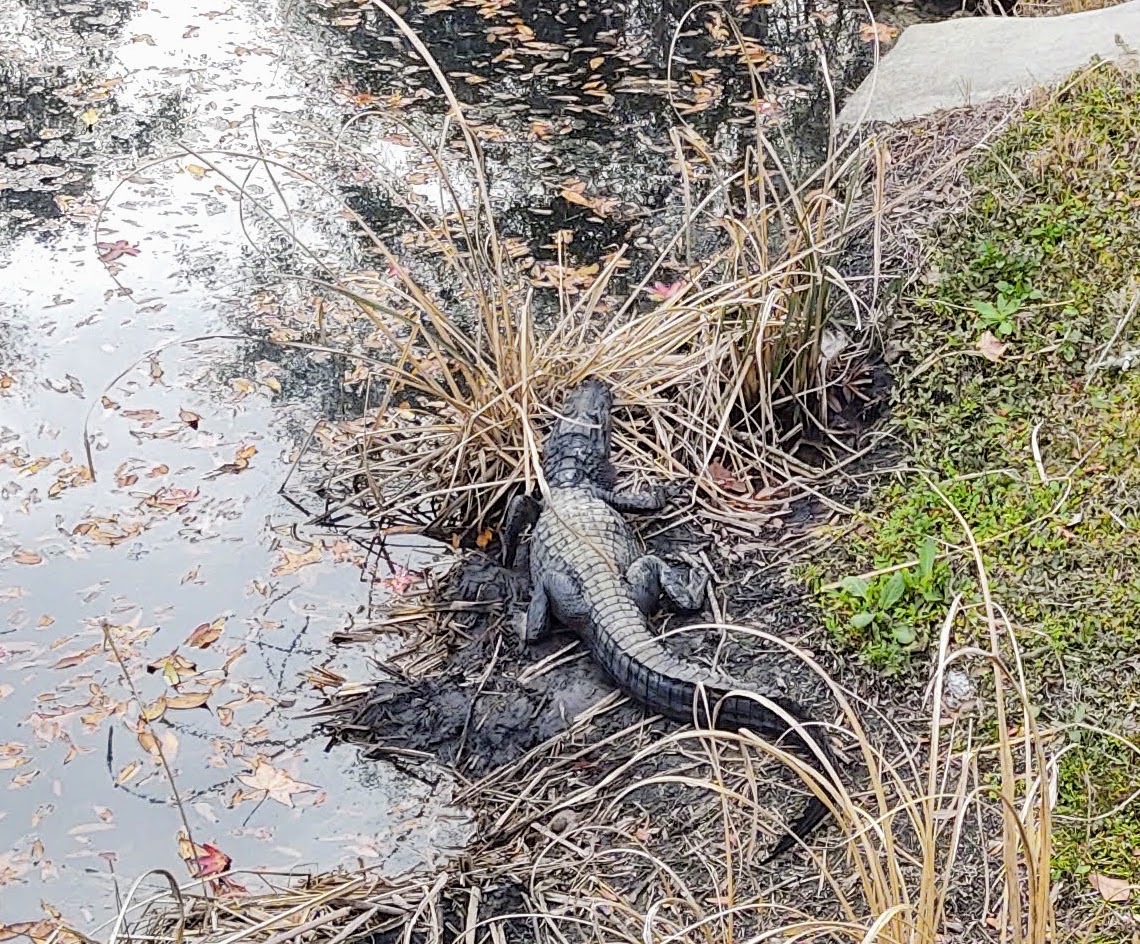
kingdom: Animalia
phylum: Chordata
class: Crocodylia
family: Alligatoridae
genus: Alligator
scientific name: Alligator mississippiensis
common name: American alligator
